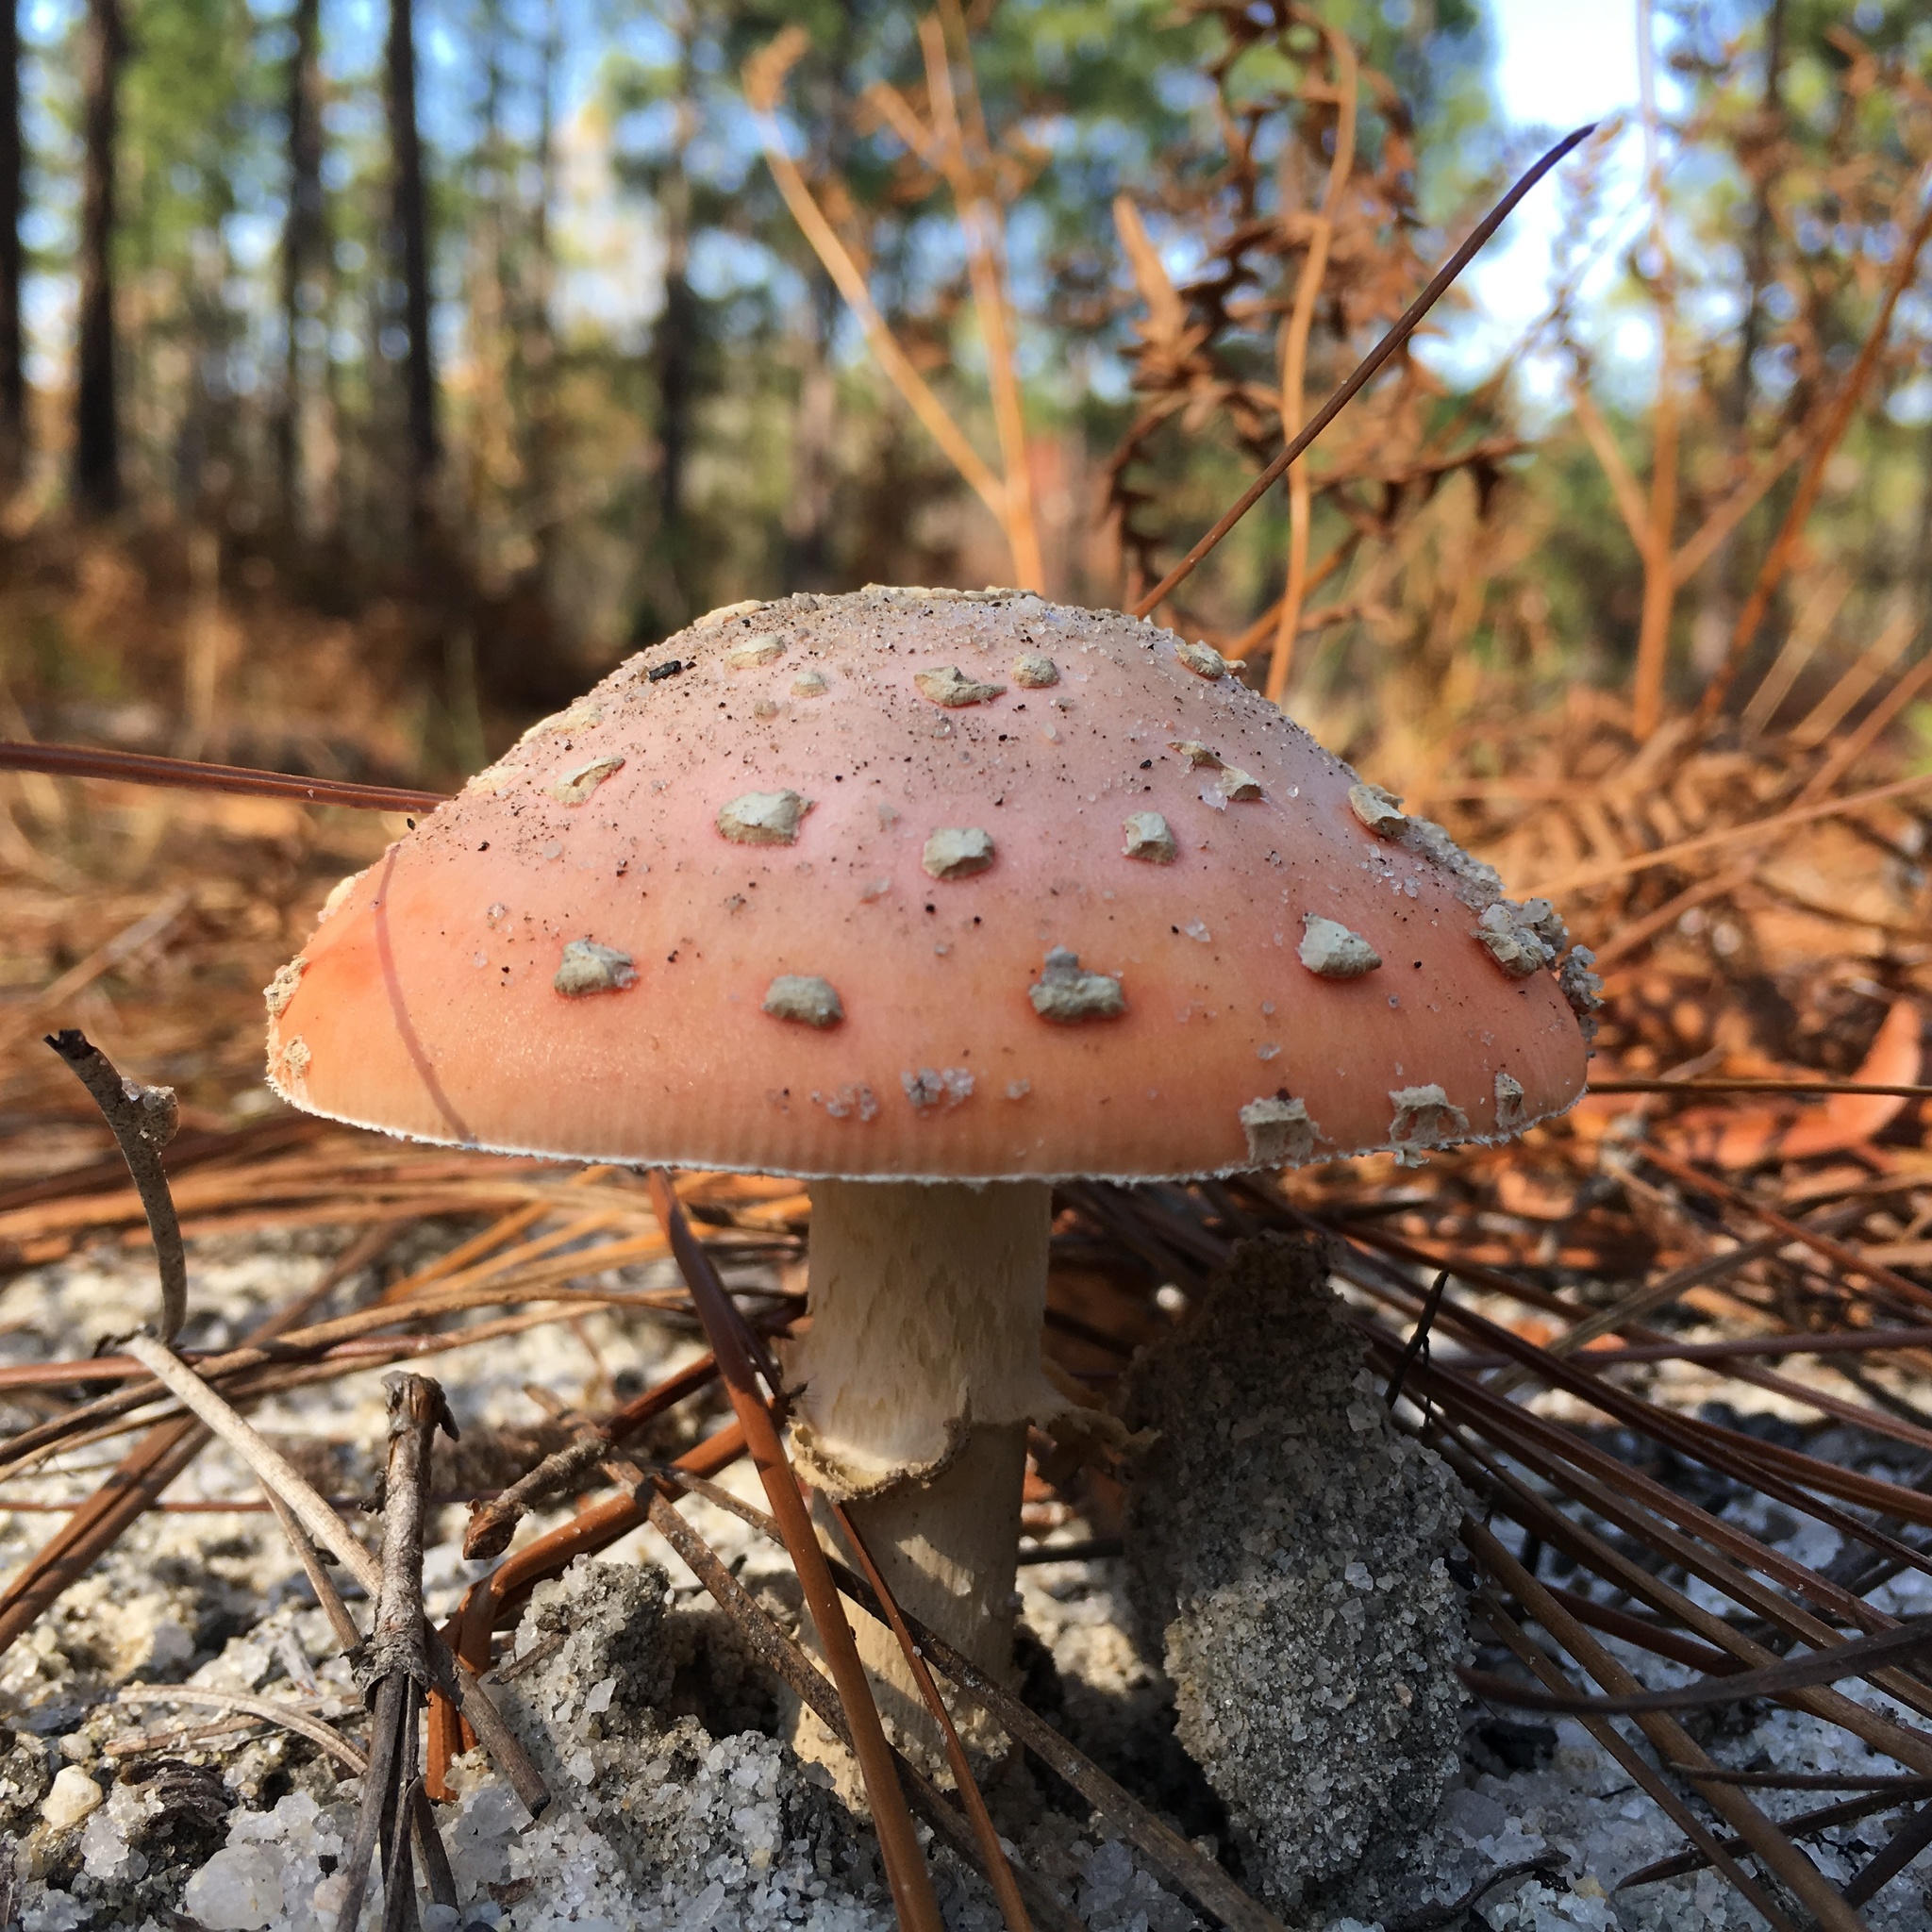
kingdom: Fungi
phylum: Basidiomycota
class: Agaricomycetes
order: Agaricales
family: Amanitaceae
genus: Amanita
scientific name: Amanita persicina
